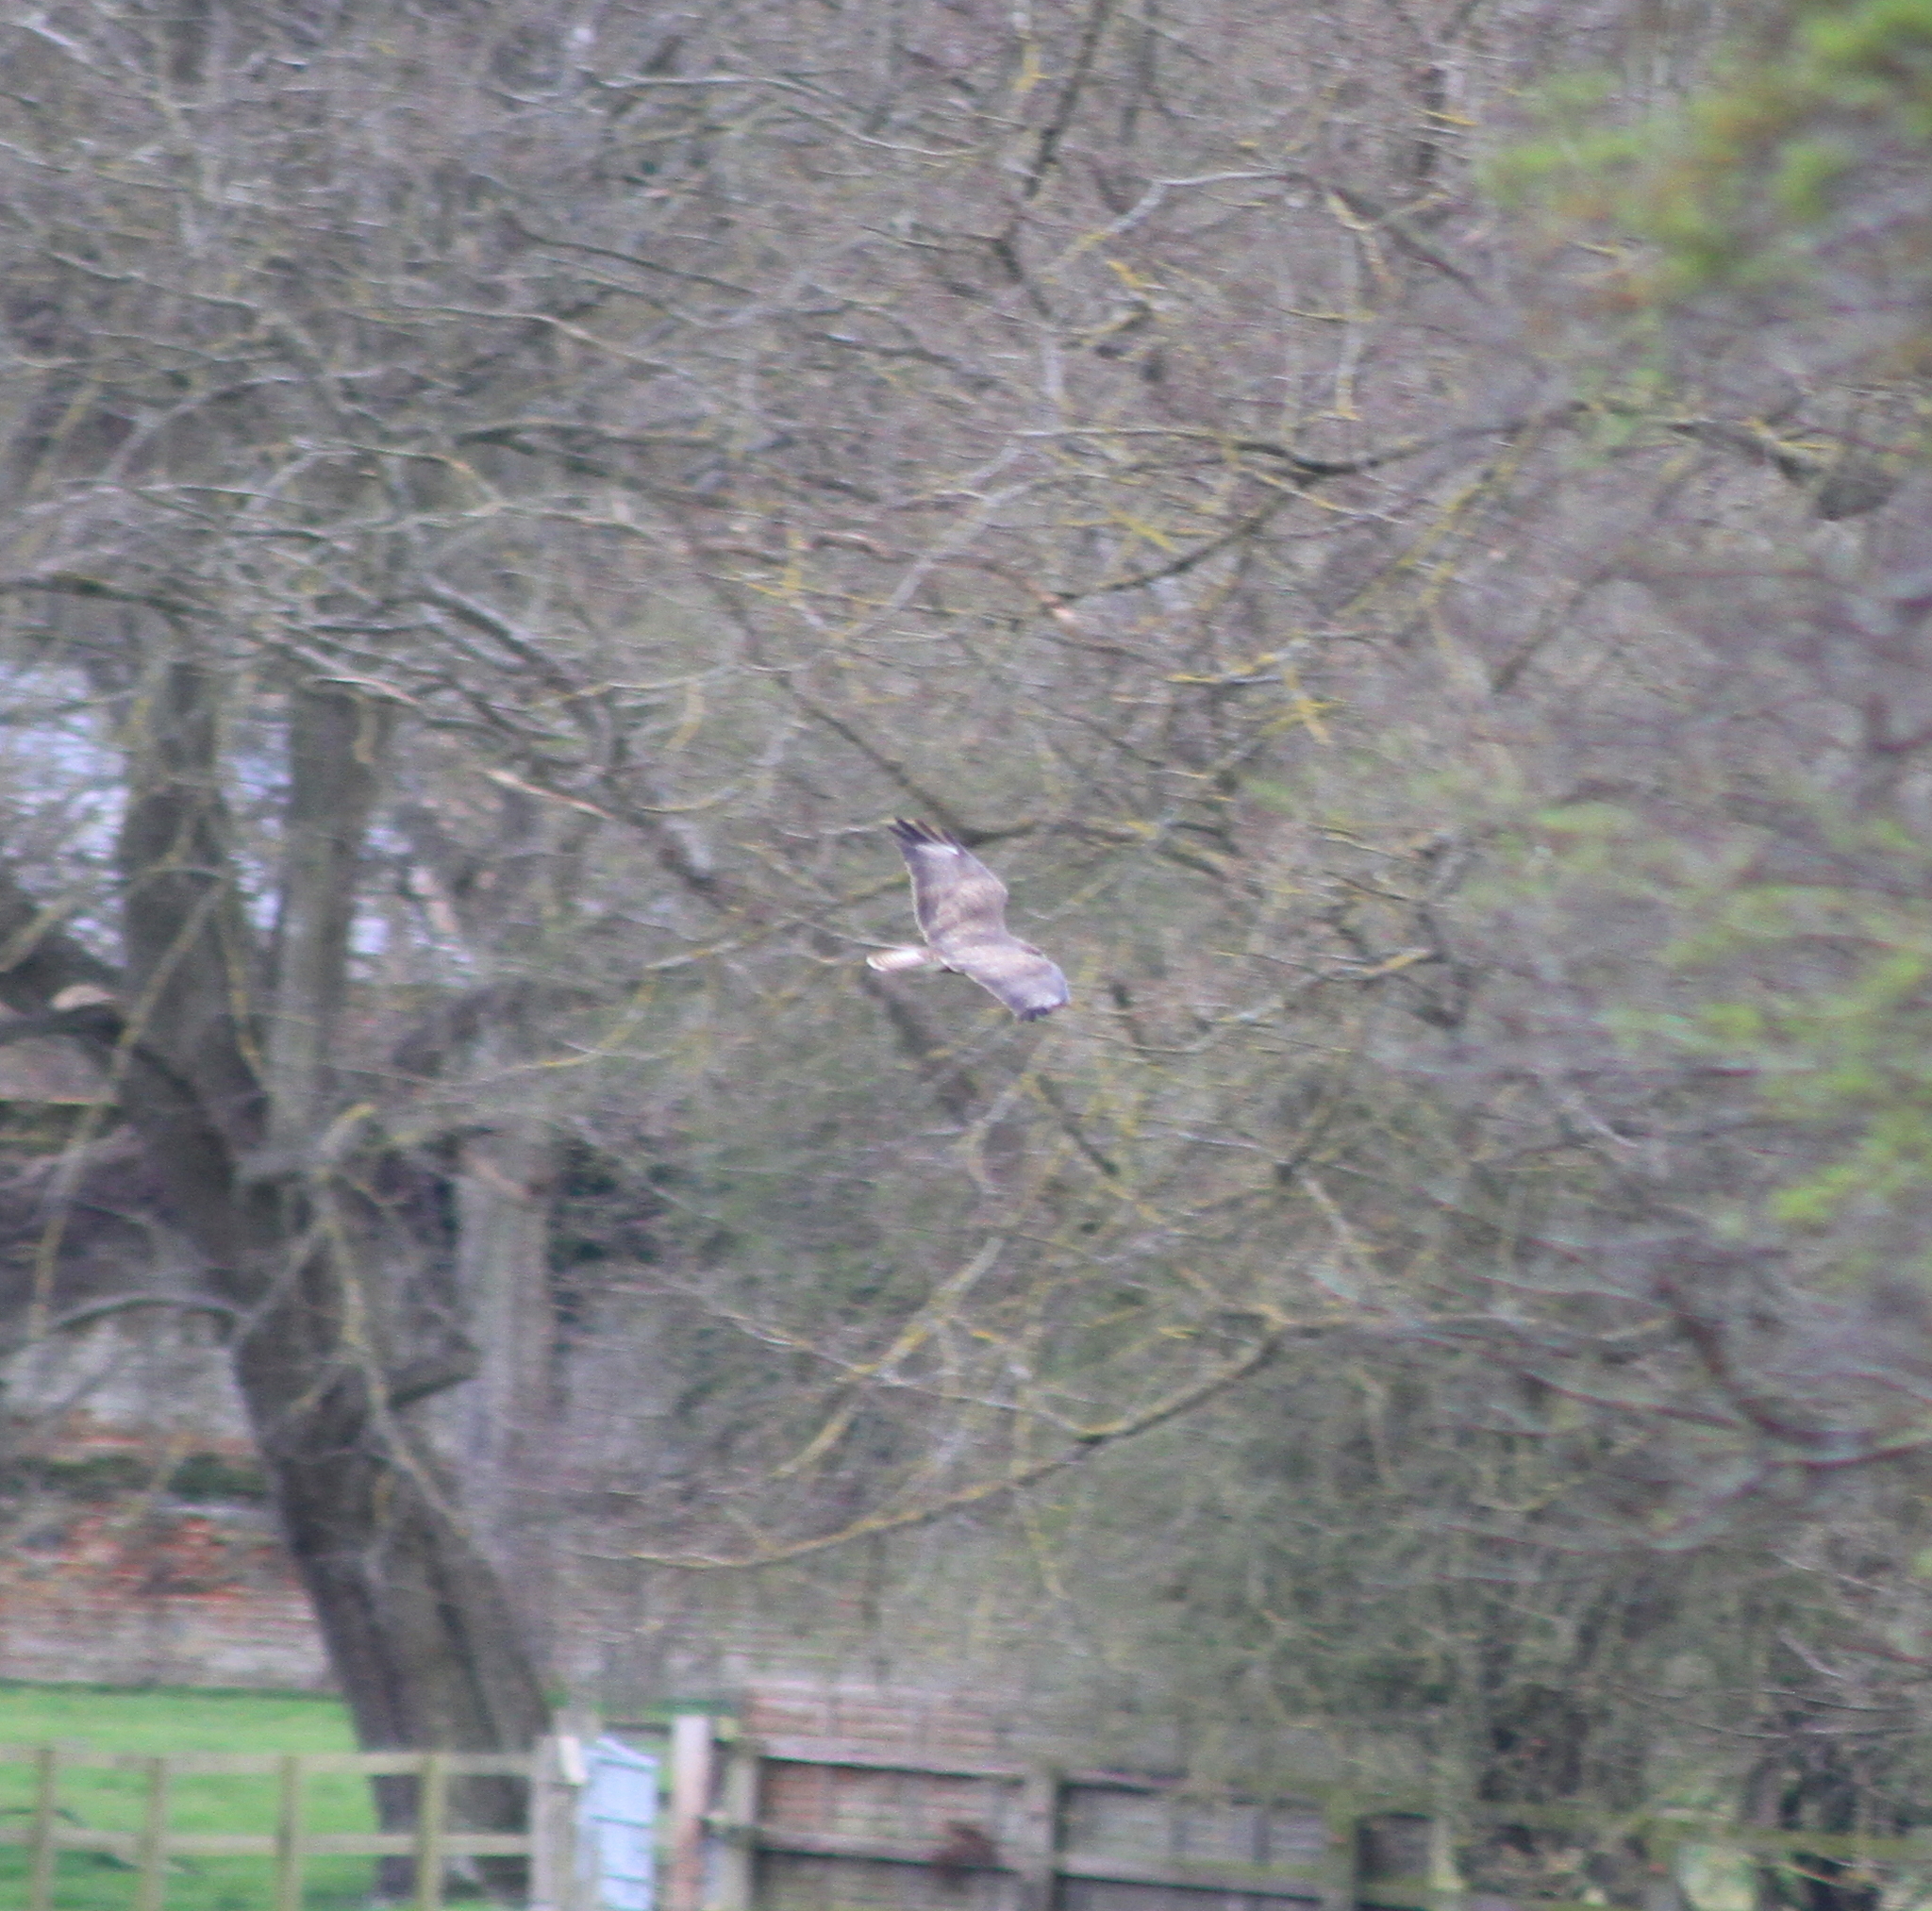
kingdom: Animalia
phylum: Chordata
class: Aves
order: Accipitriformes
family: Accipitridae
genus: Buteo
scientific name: Buteo buteo
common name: Common buzzard
